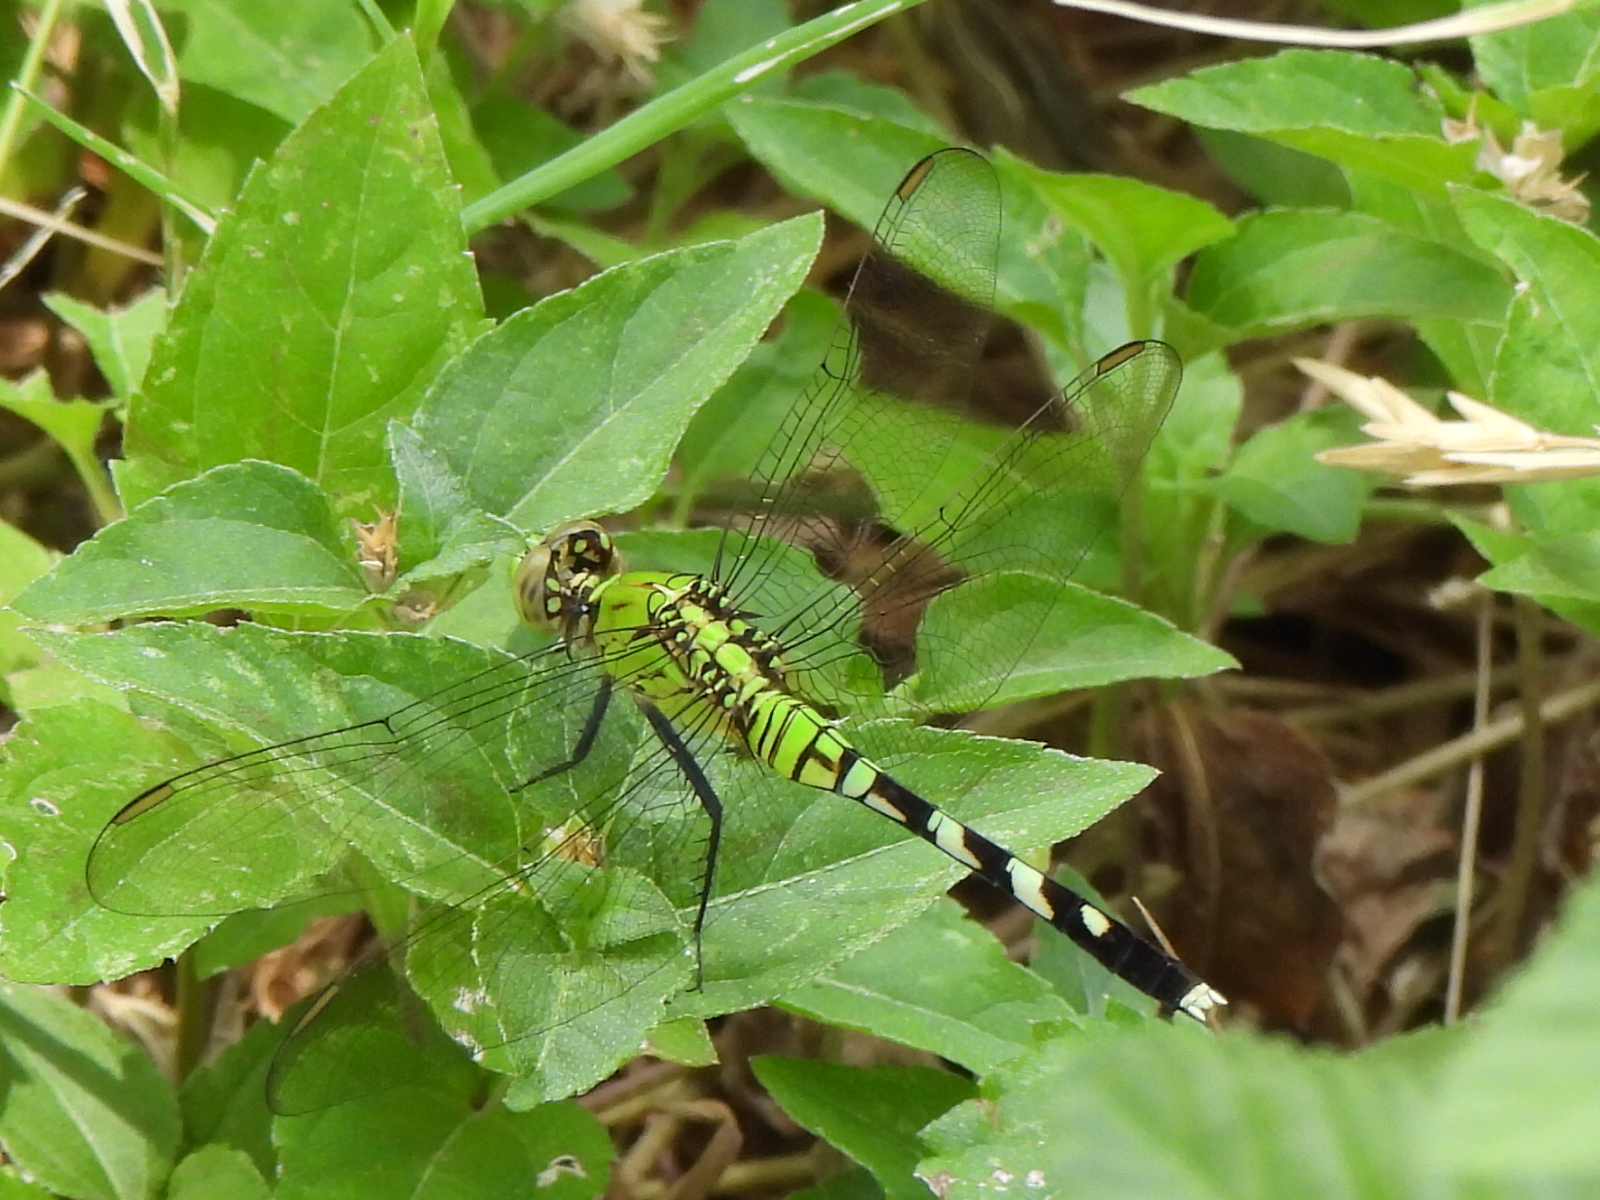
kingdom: Animalia
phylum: Arthropoda
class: Insecta
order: Odonata
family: Libellulidae
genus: Erythemis
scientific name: Erythemis simplicicollis
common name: Eastern pondhawk
